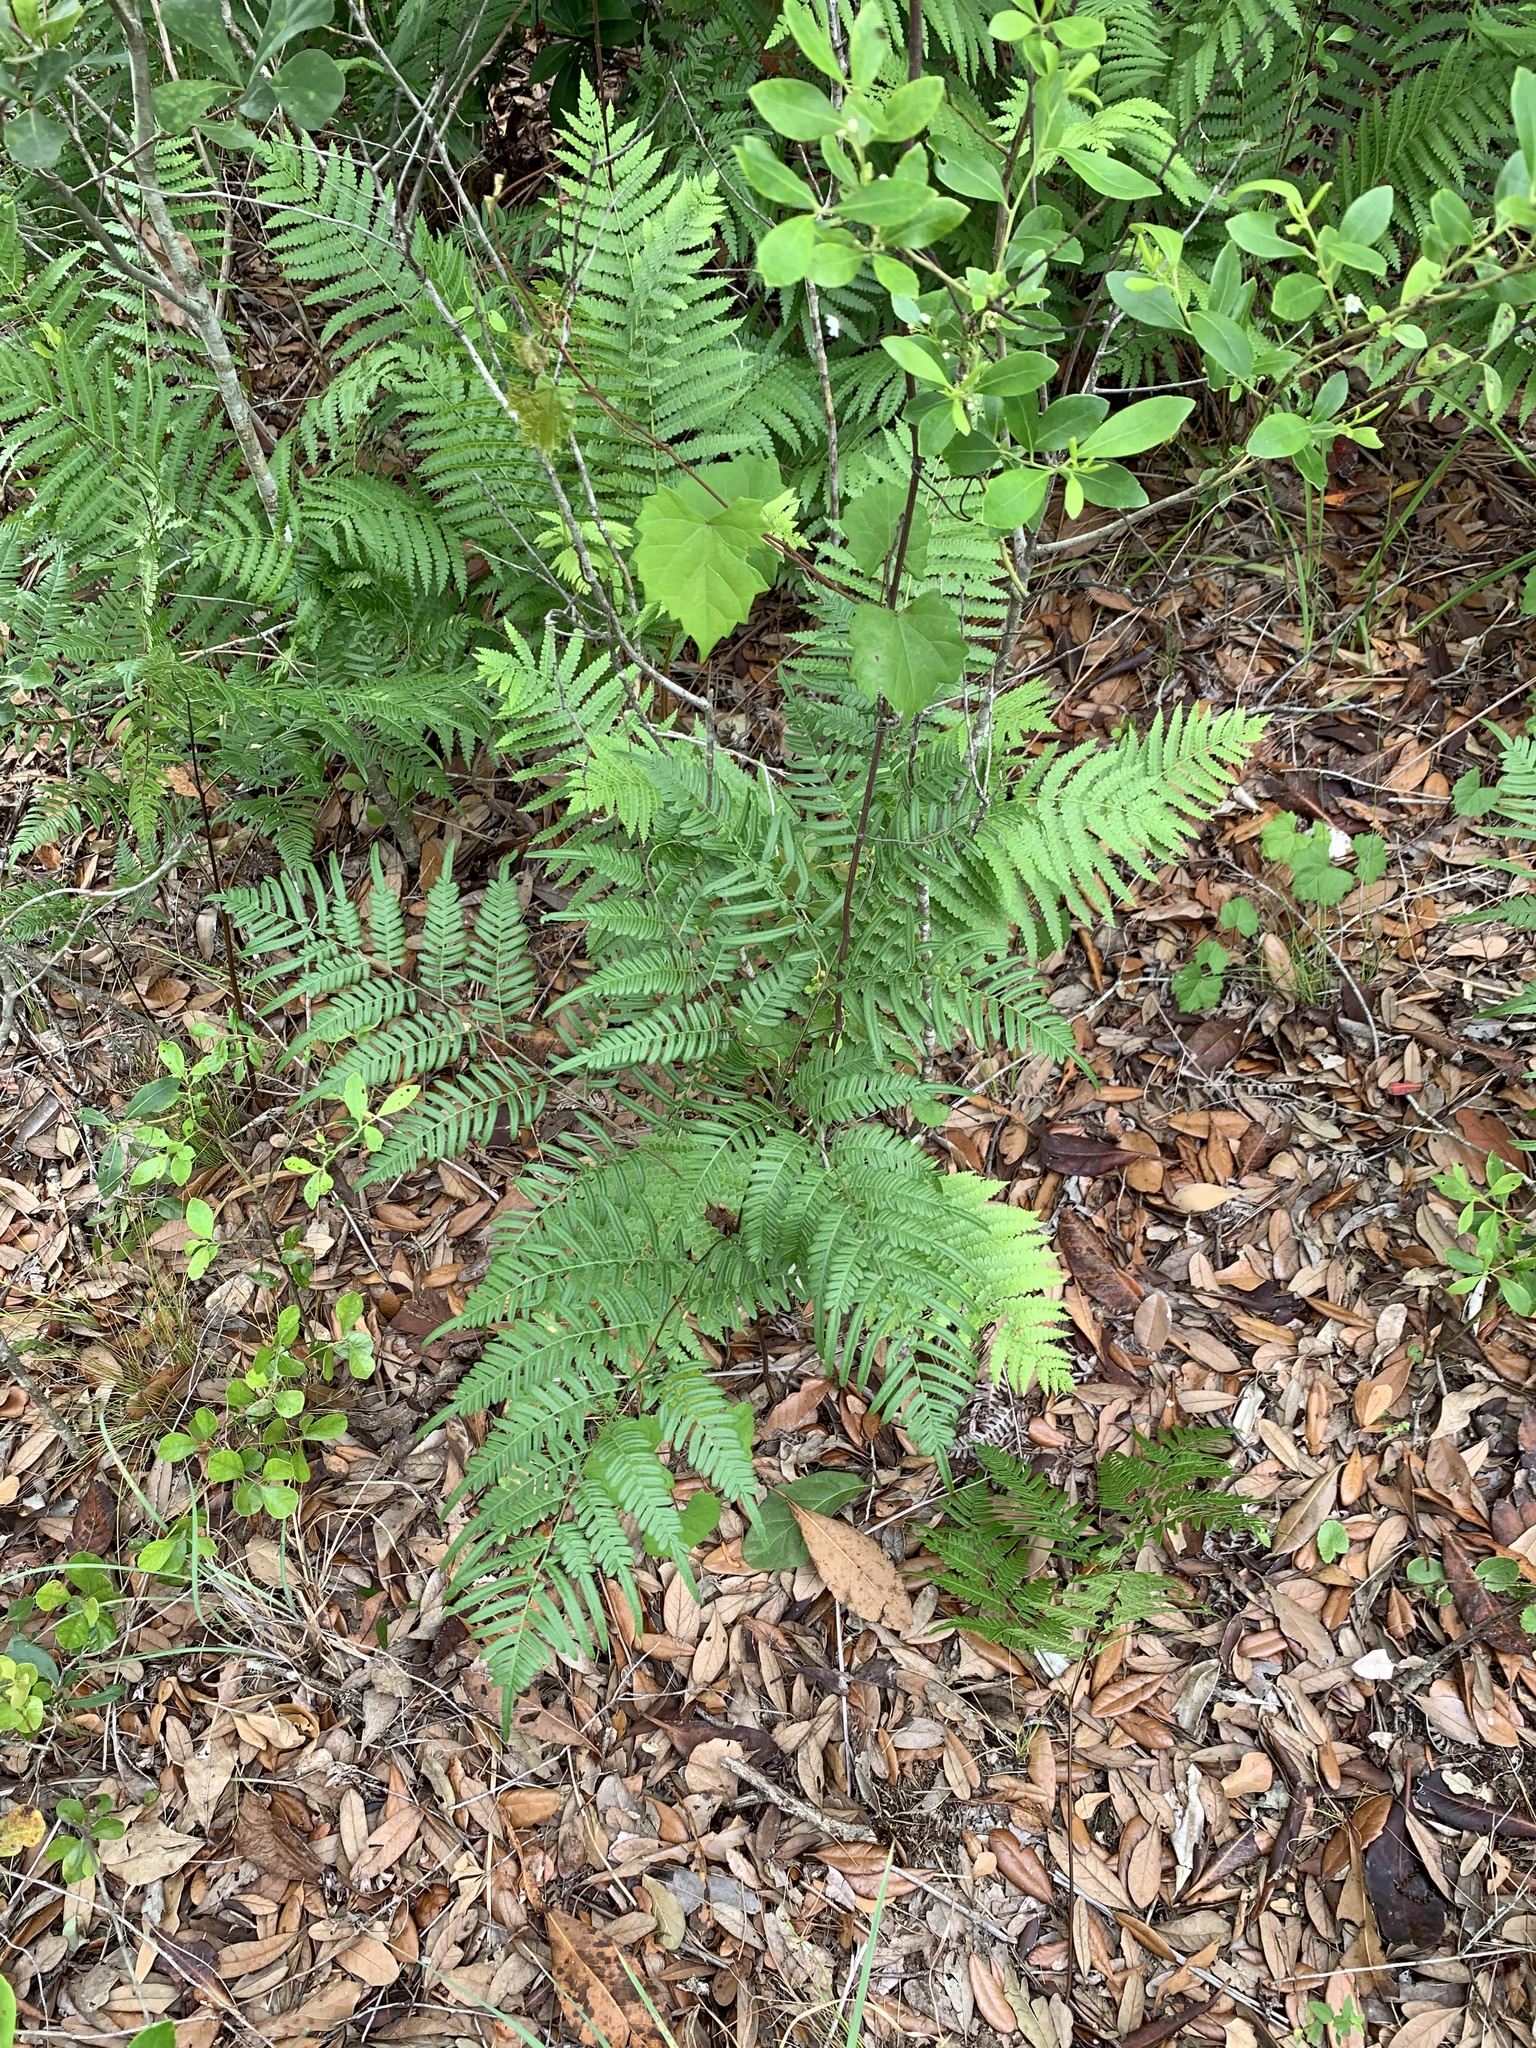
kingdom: Plantae
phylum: Tracheophyta
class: Polypodiopsida
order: Polypodiales
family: Dennstaedtiaceae
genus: Pteridium
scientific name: Pteridium aquilinum
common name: Bracken
